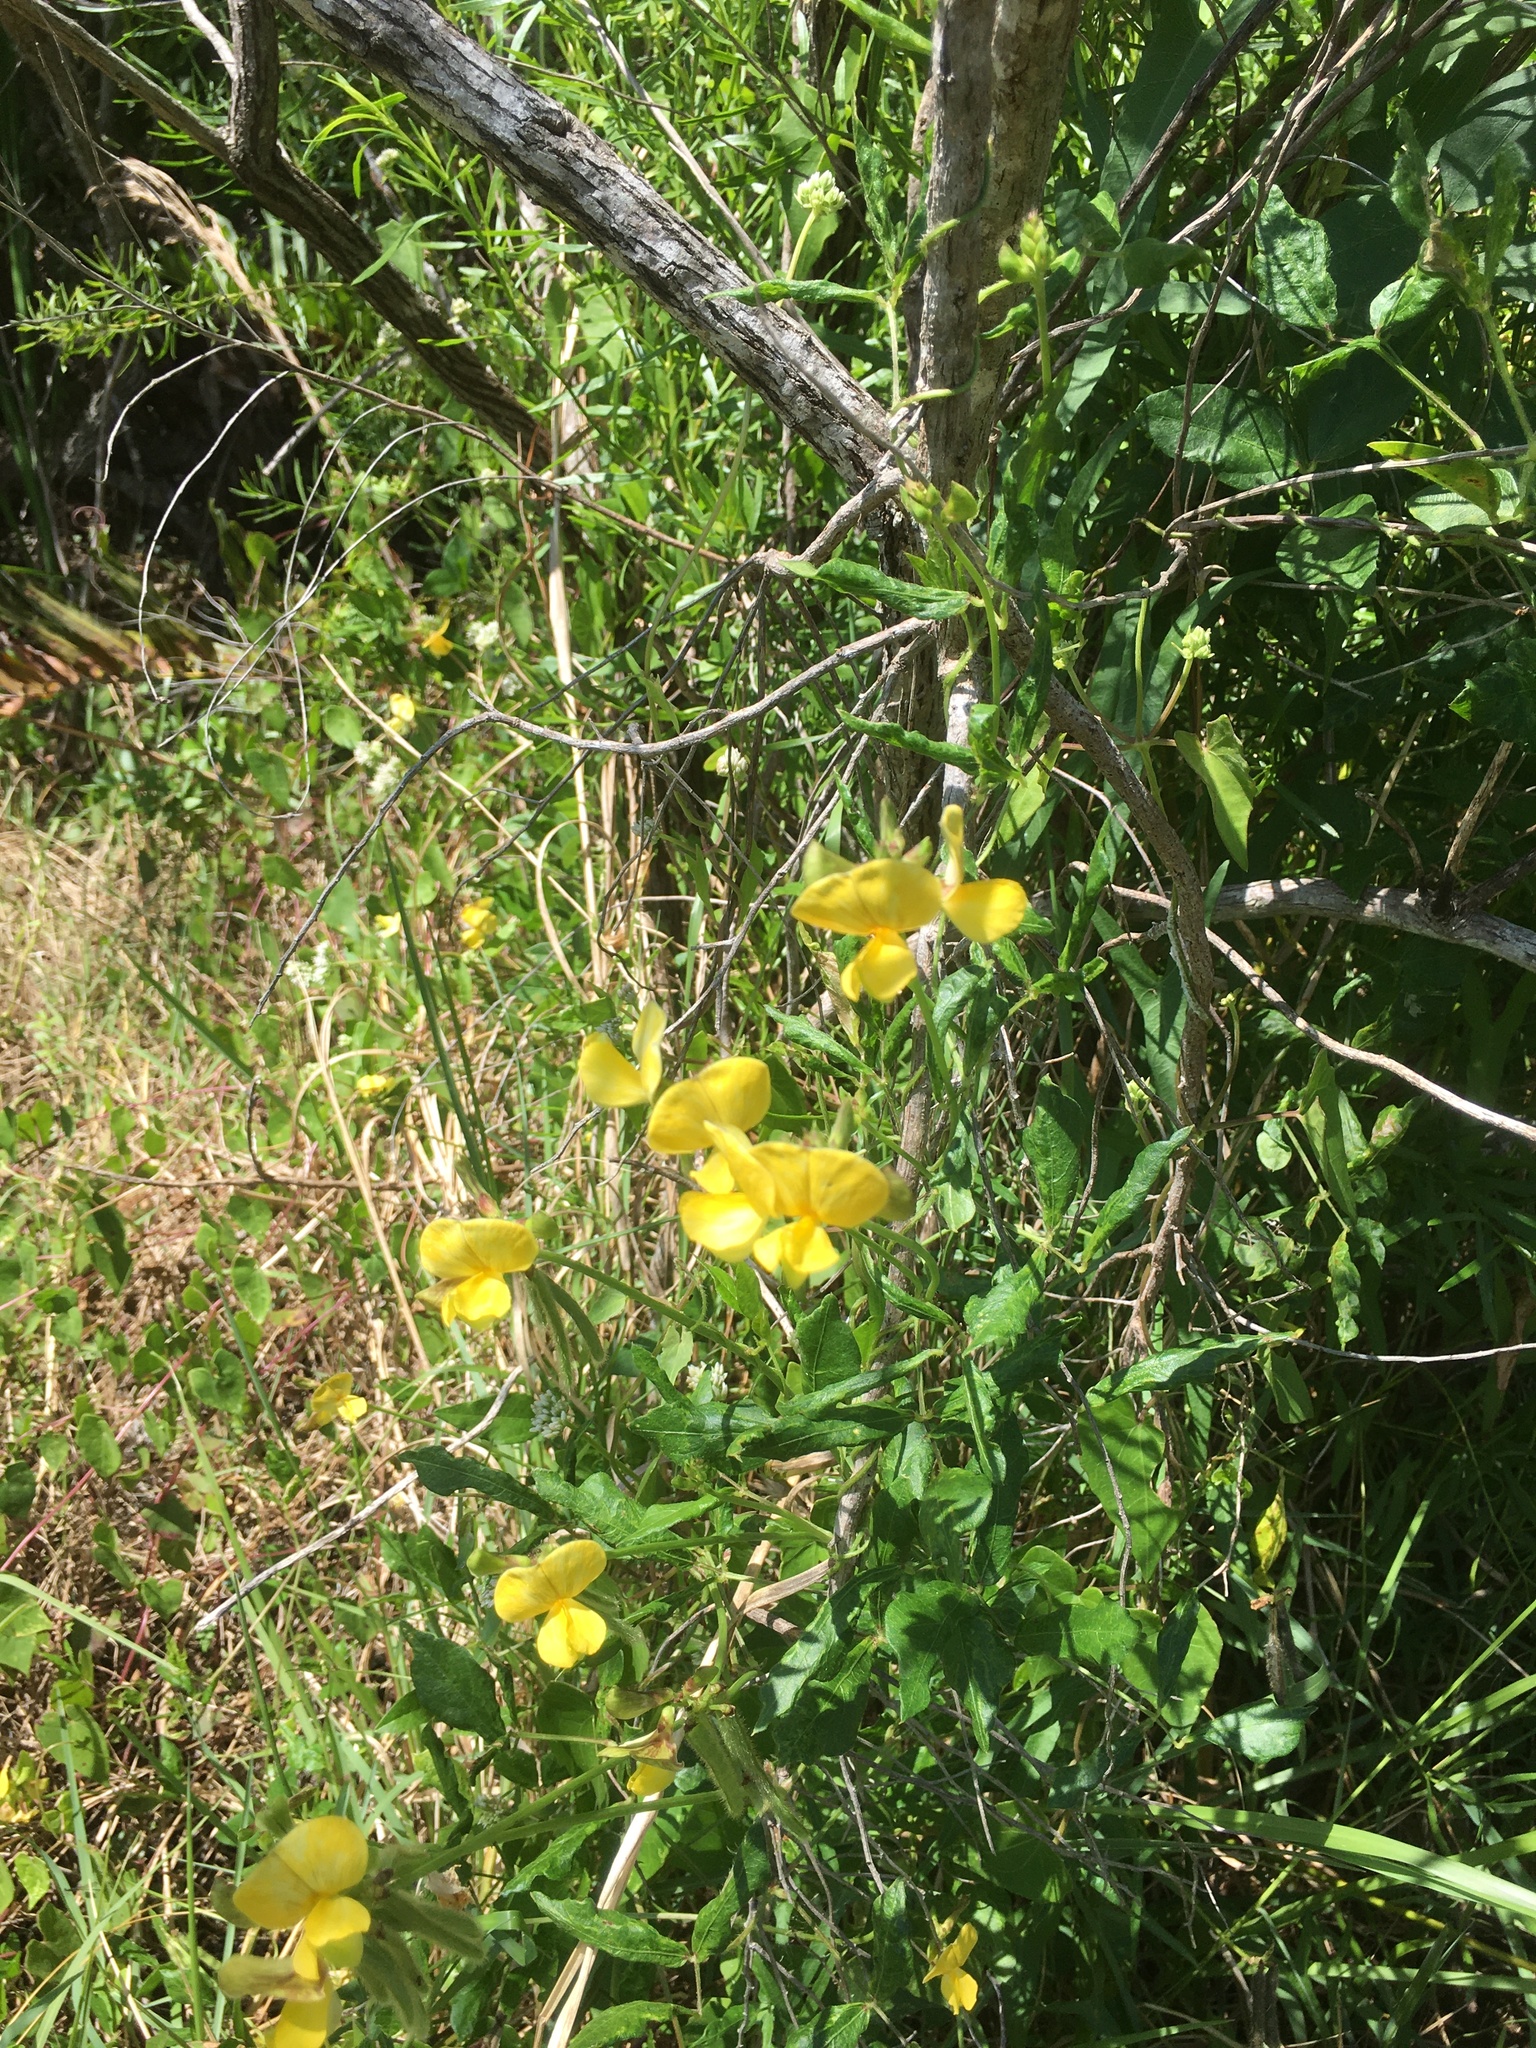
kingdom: Plantae
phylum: Tracheophyta
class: Magnoliopsida
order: Fabales
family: Fabaceae
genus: Vigna
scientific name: Vigna luteola
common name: Hairypod cowpea
